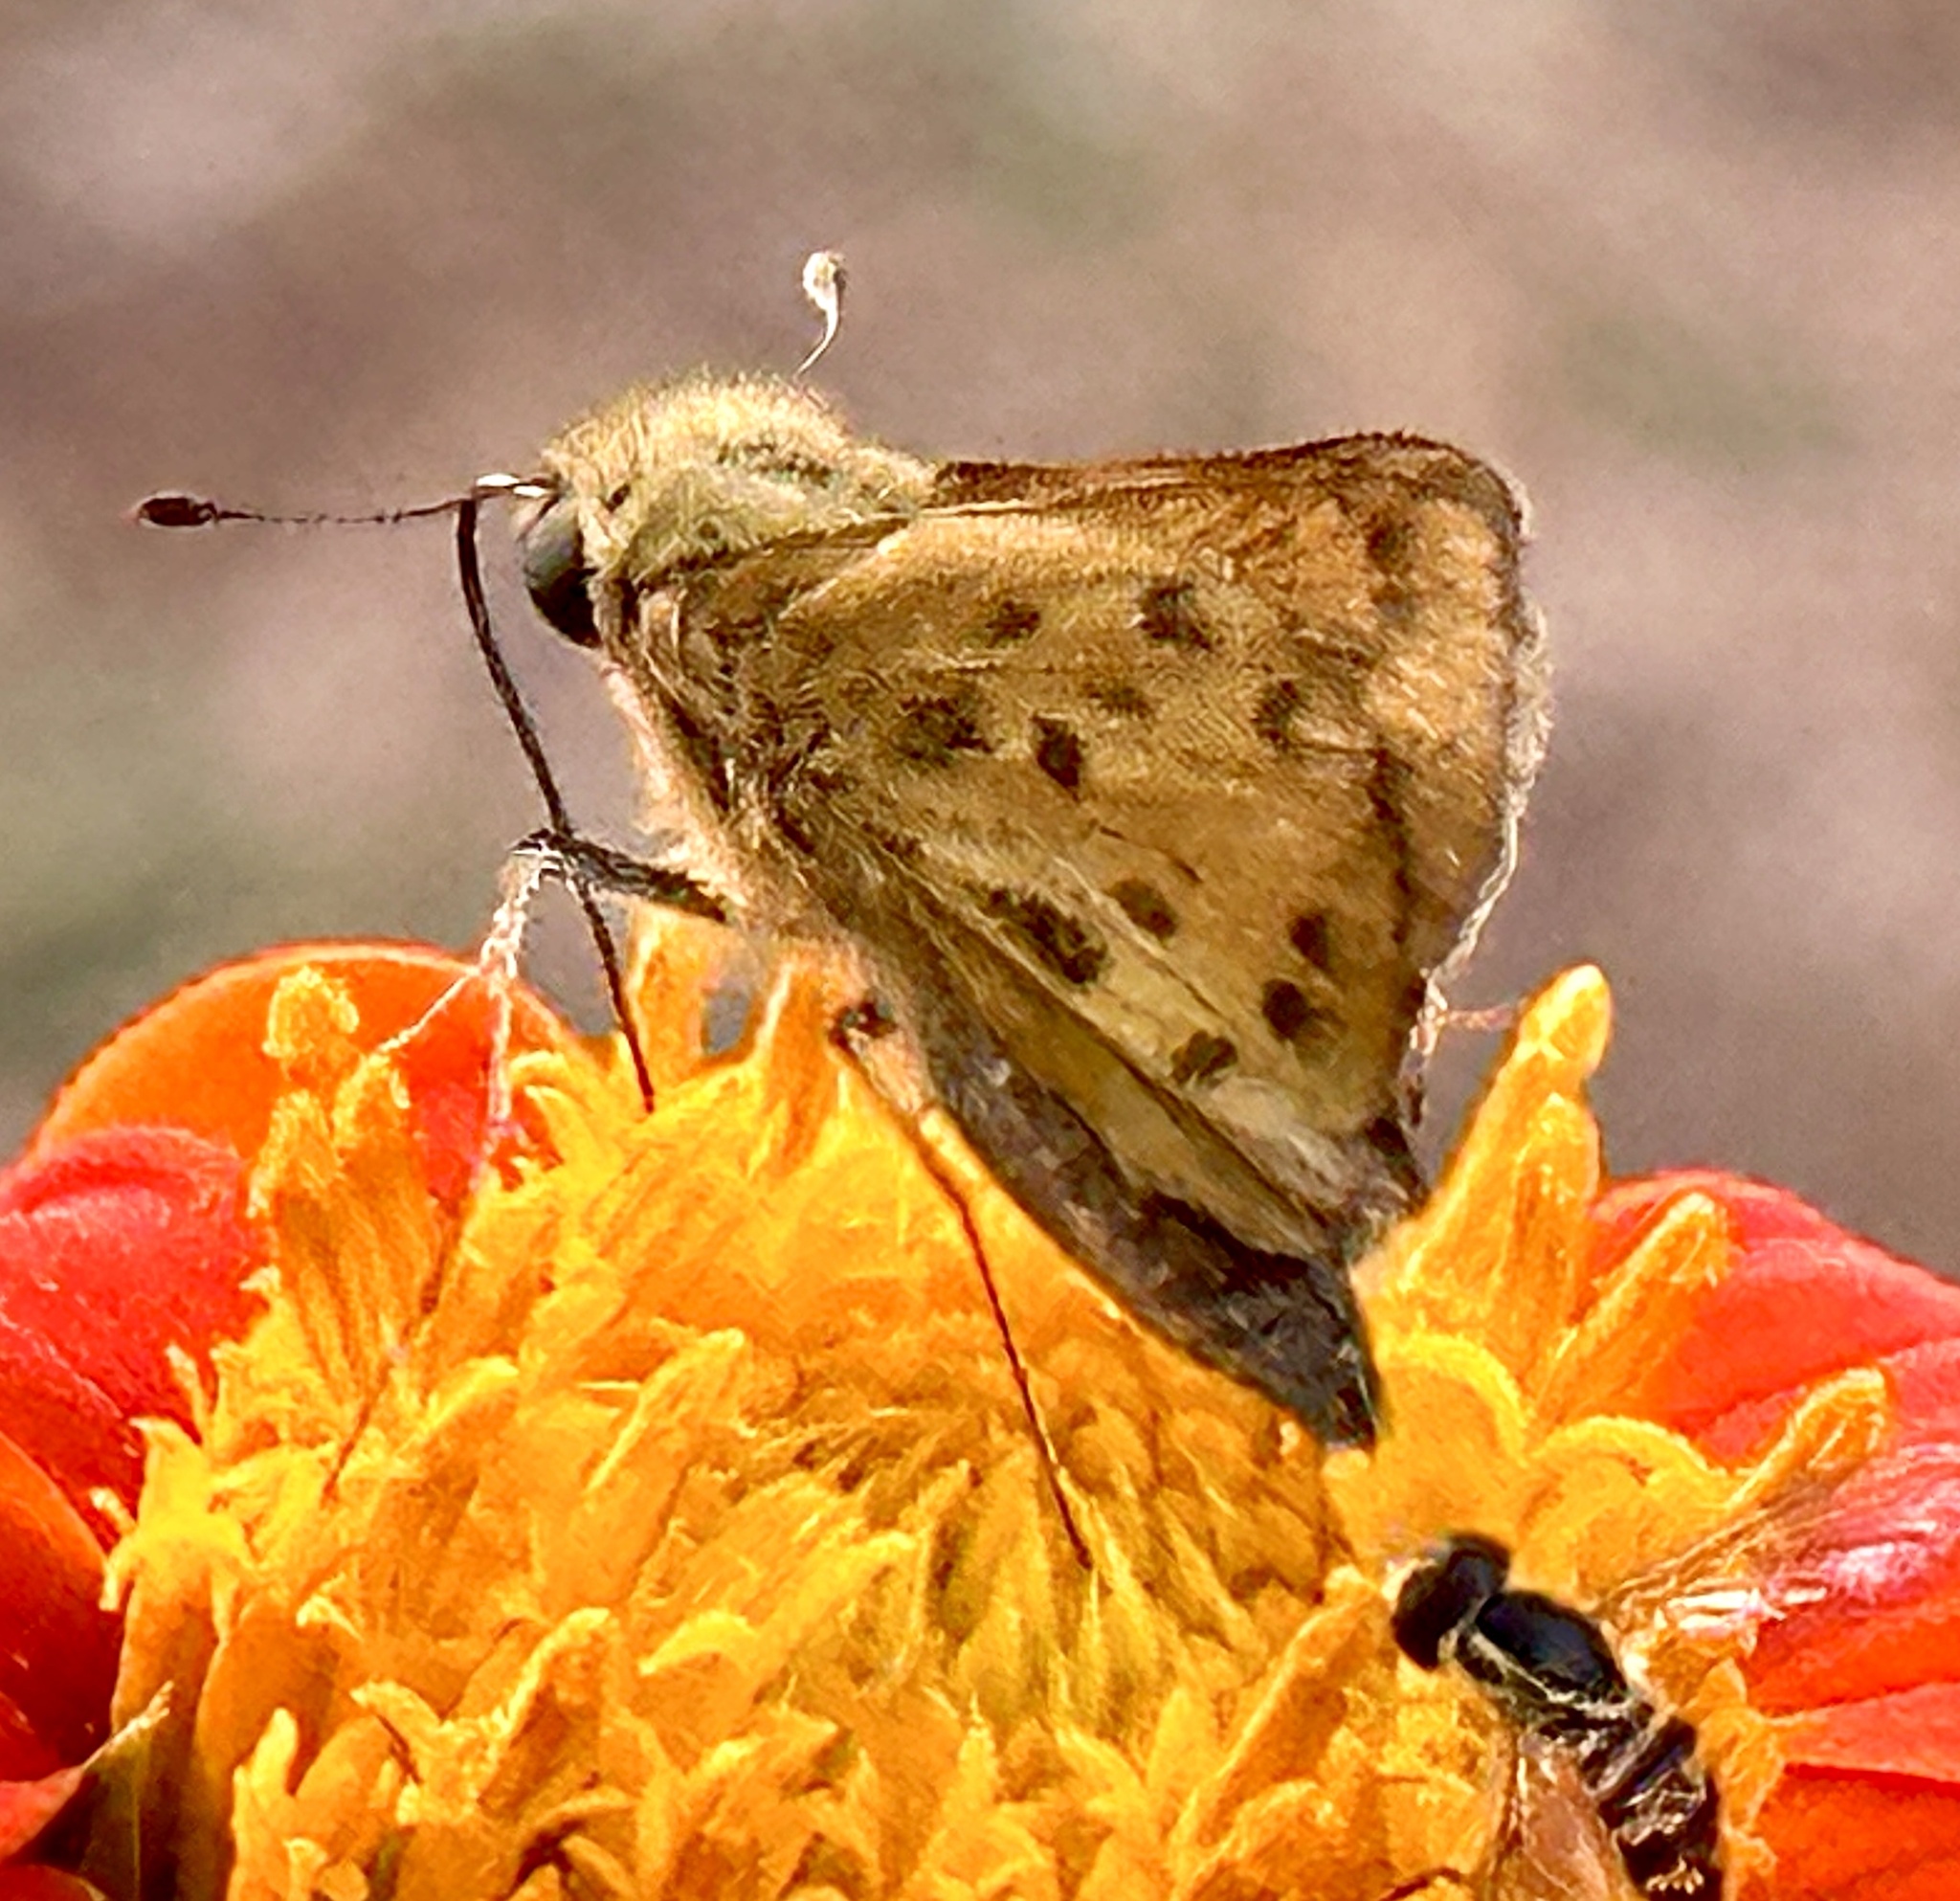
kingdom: Animalia
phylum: Arthropoda
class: Insecta
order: Lepidoptera
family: Hesperiidae
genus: Hylephila
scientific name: Hylephila phyleus
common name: Fiery skipper
